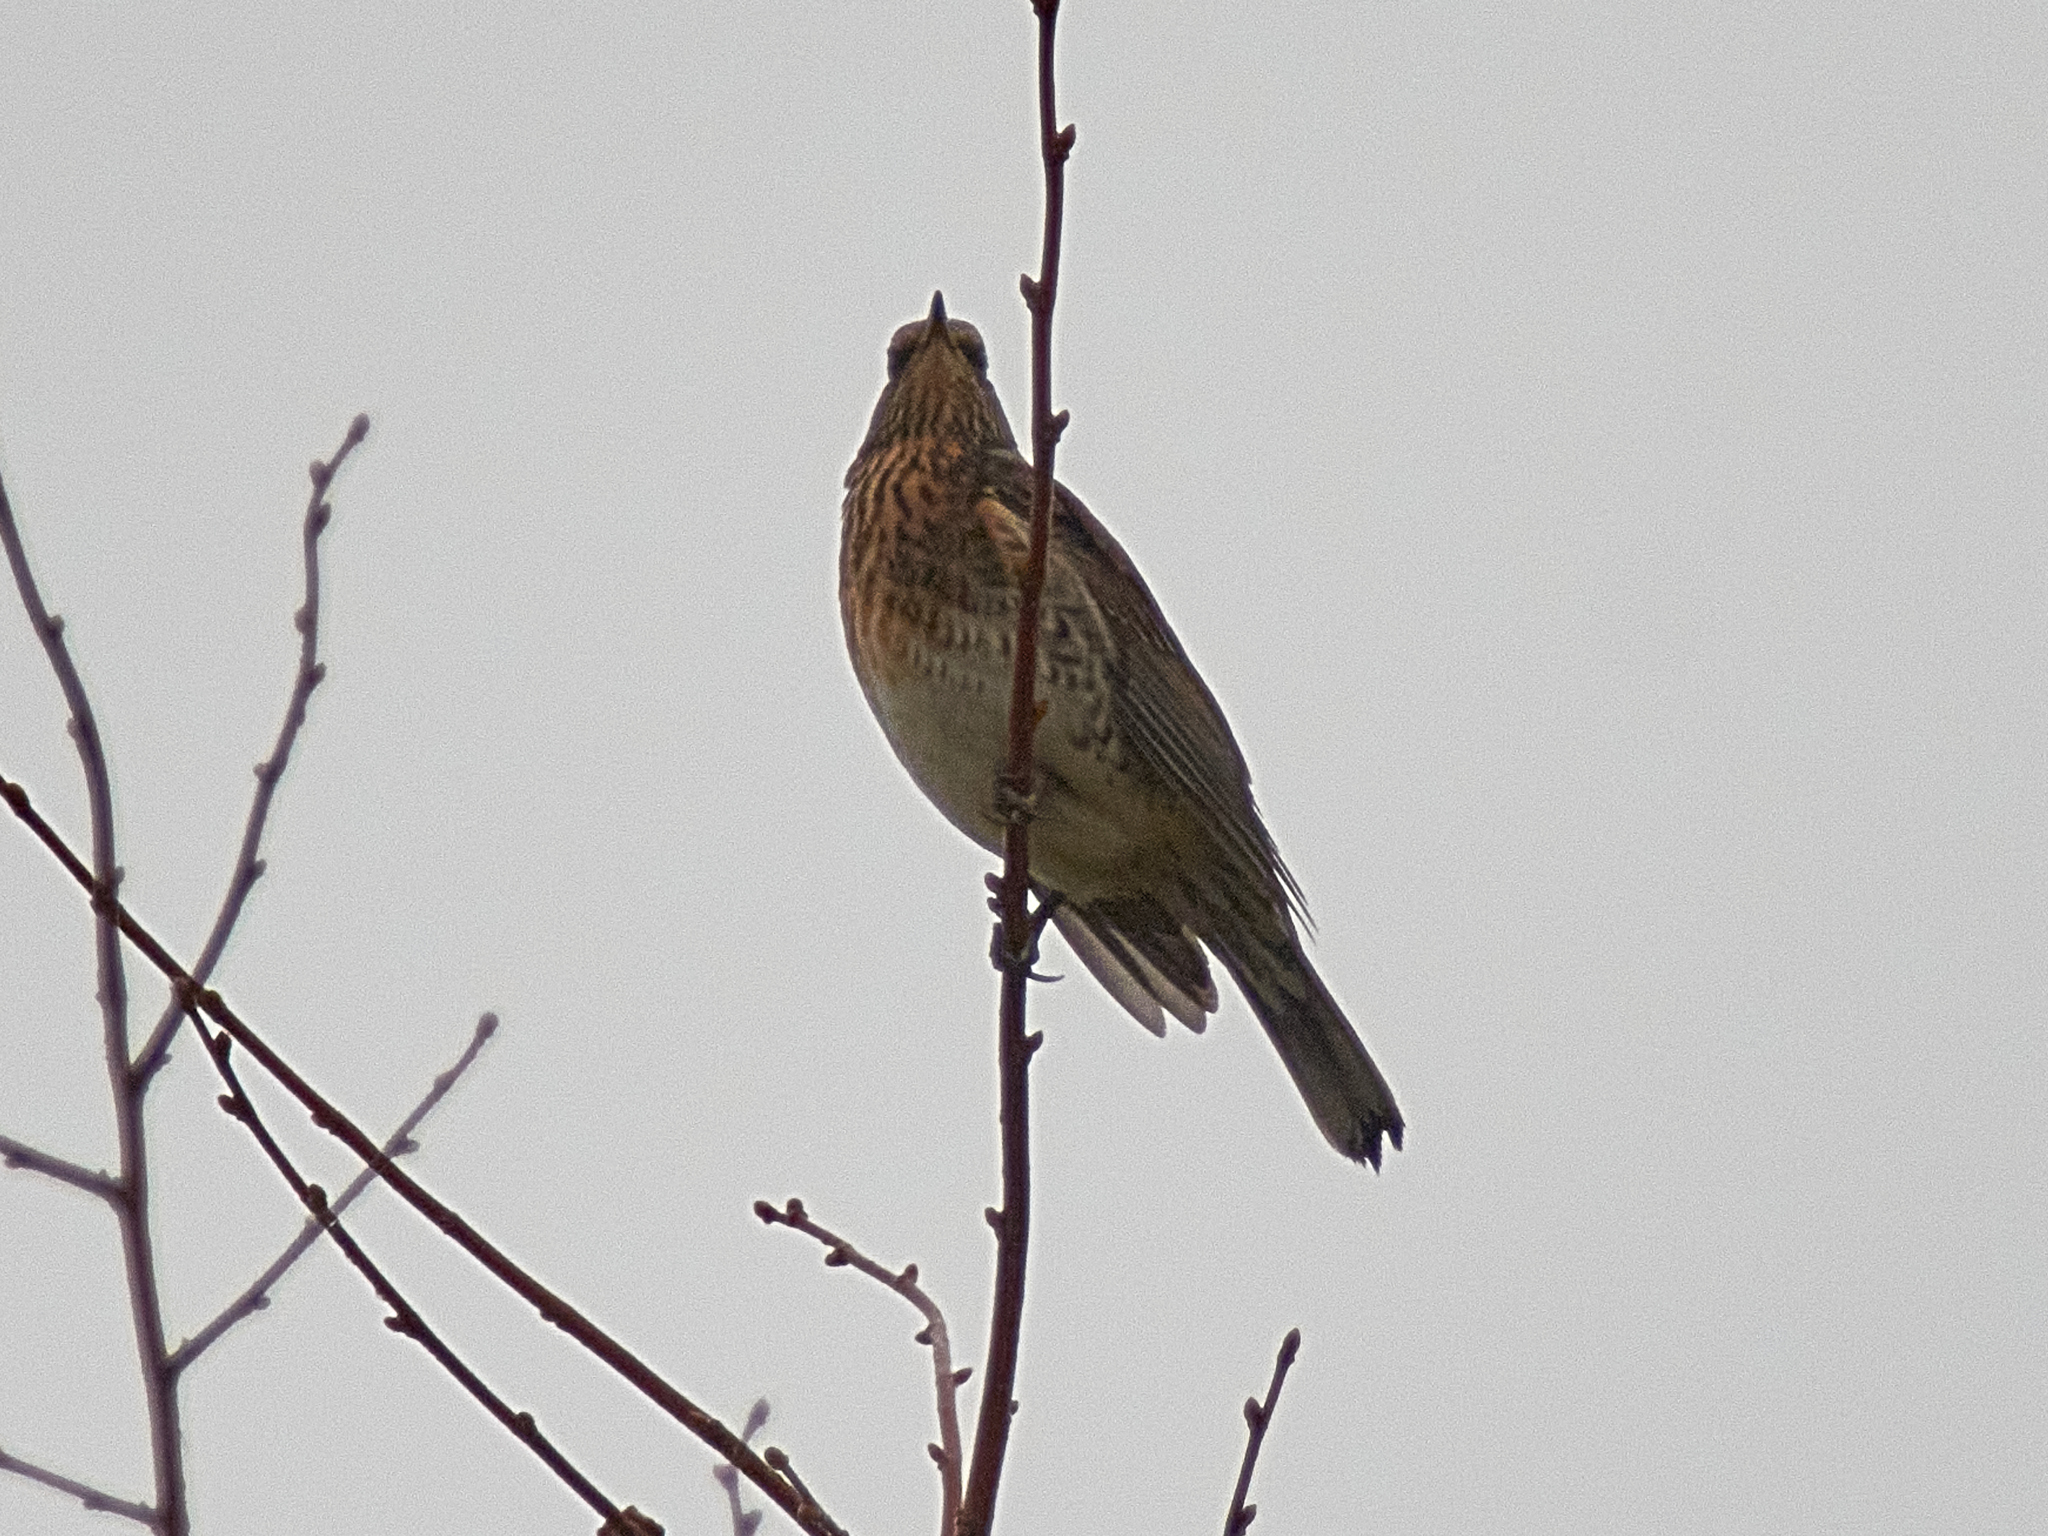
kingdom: Animalia
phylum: Chordata
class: Aves
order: Passeriformes
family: Turdidae
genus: Turdus
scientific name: Turdus pilaris
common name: Fieldfare
